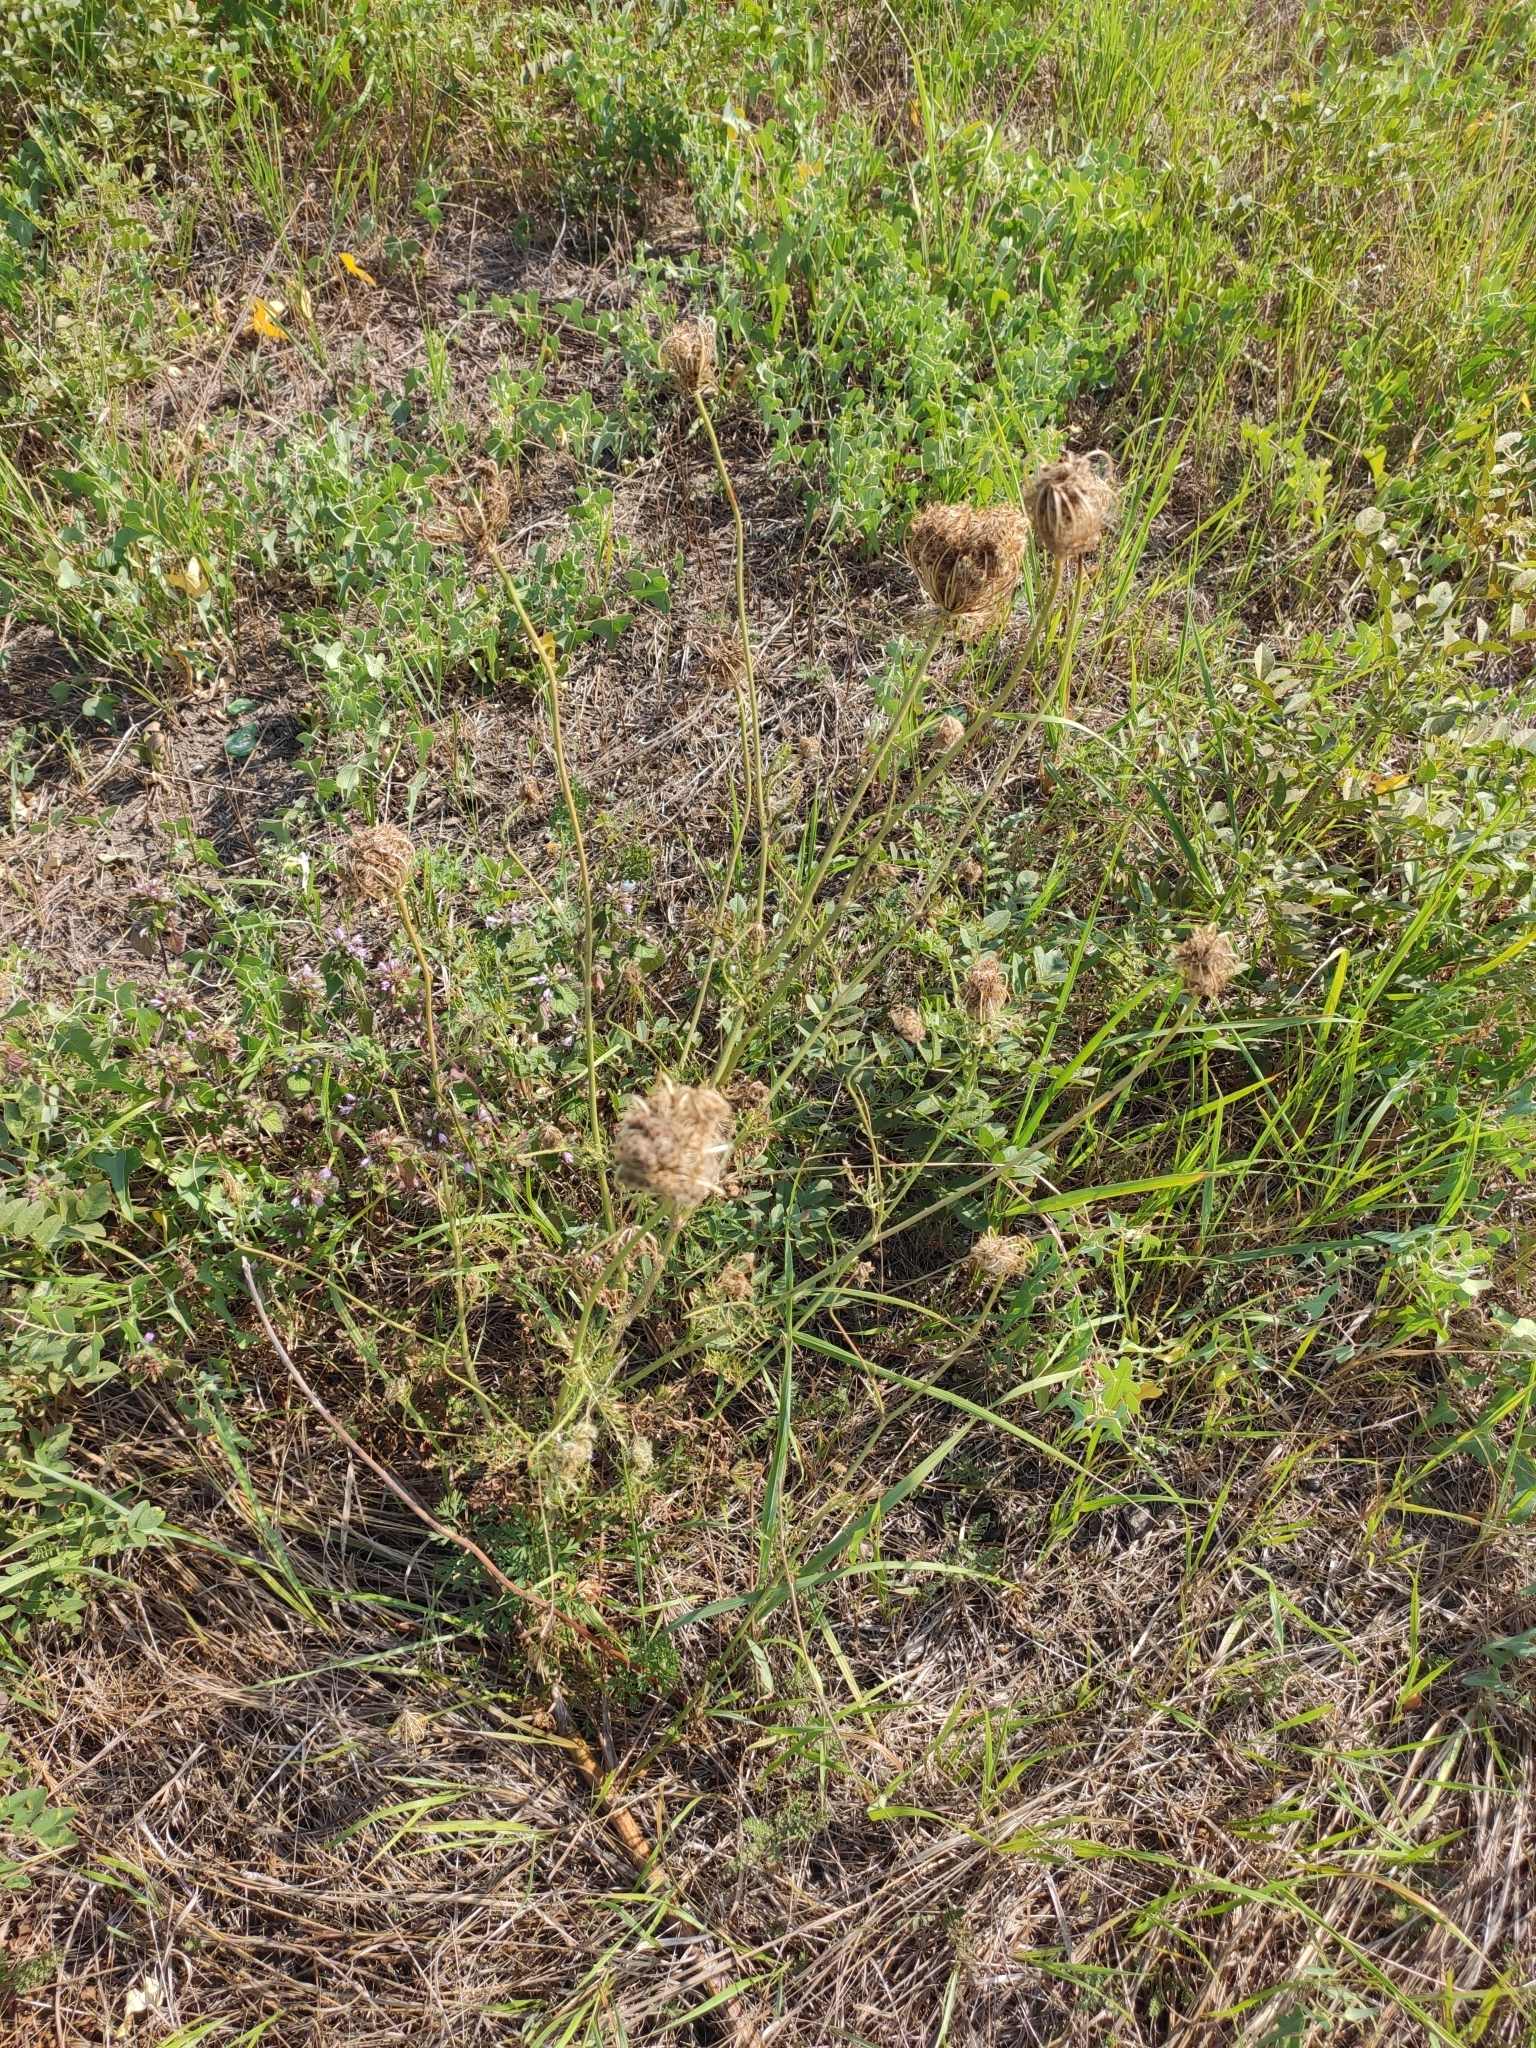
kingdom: Plantae
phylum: Tracheophyta
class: Magnoliopsida
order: Apiales
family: Apiaceae
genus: Daucus
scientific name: Daucus carota
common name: Wild carrot
